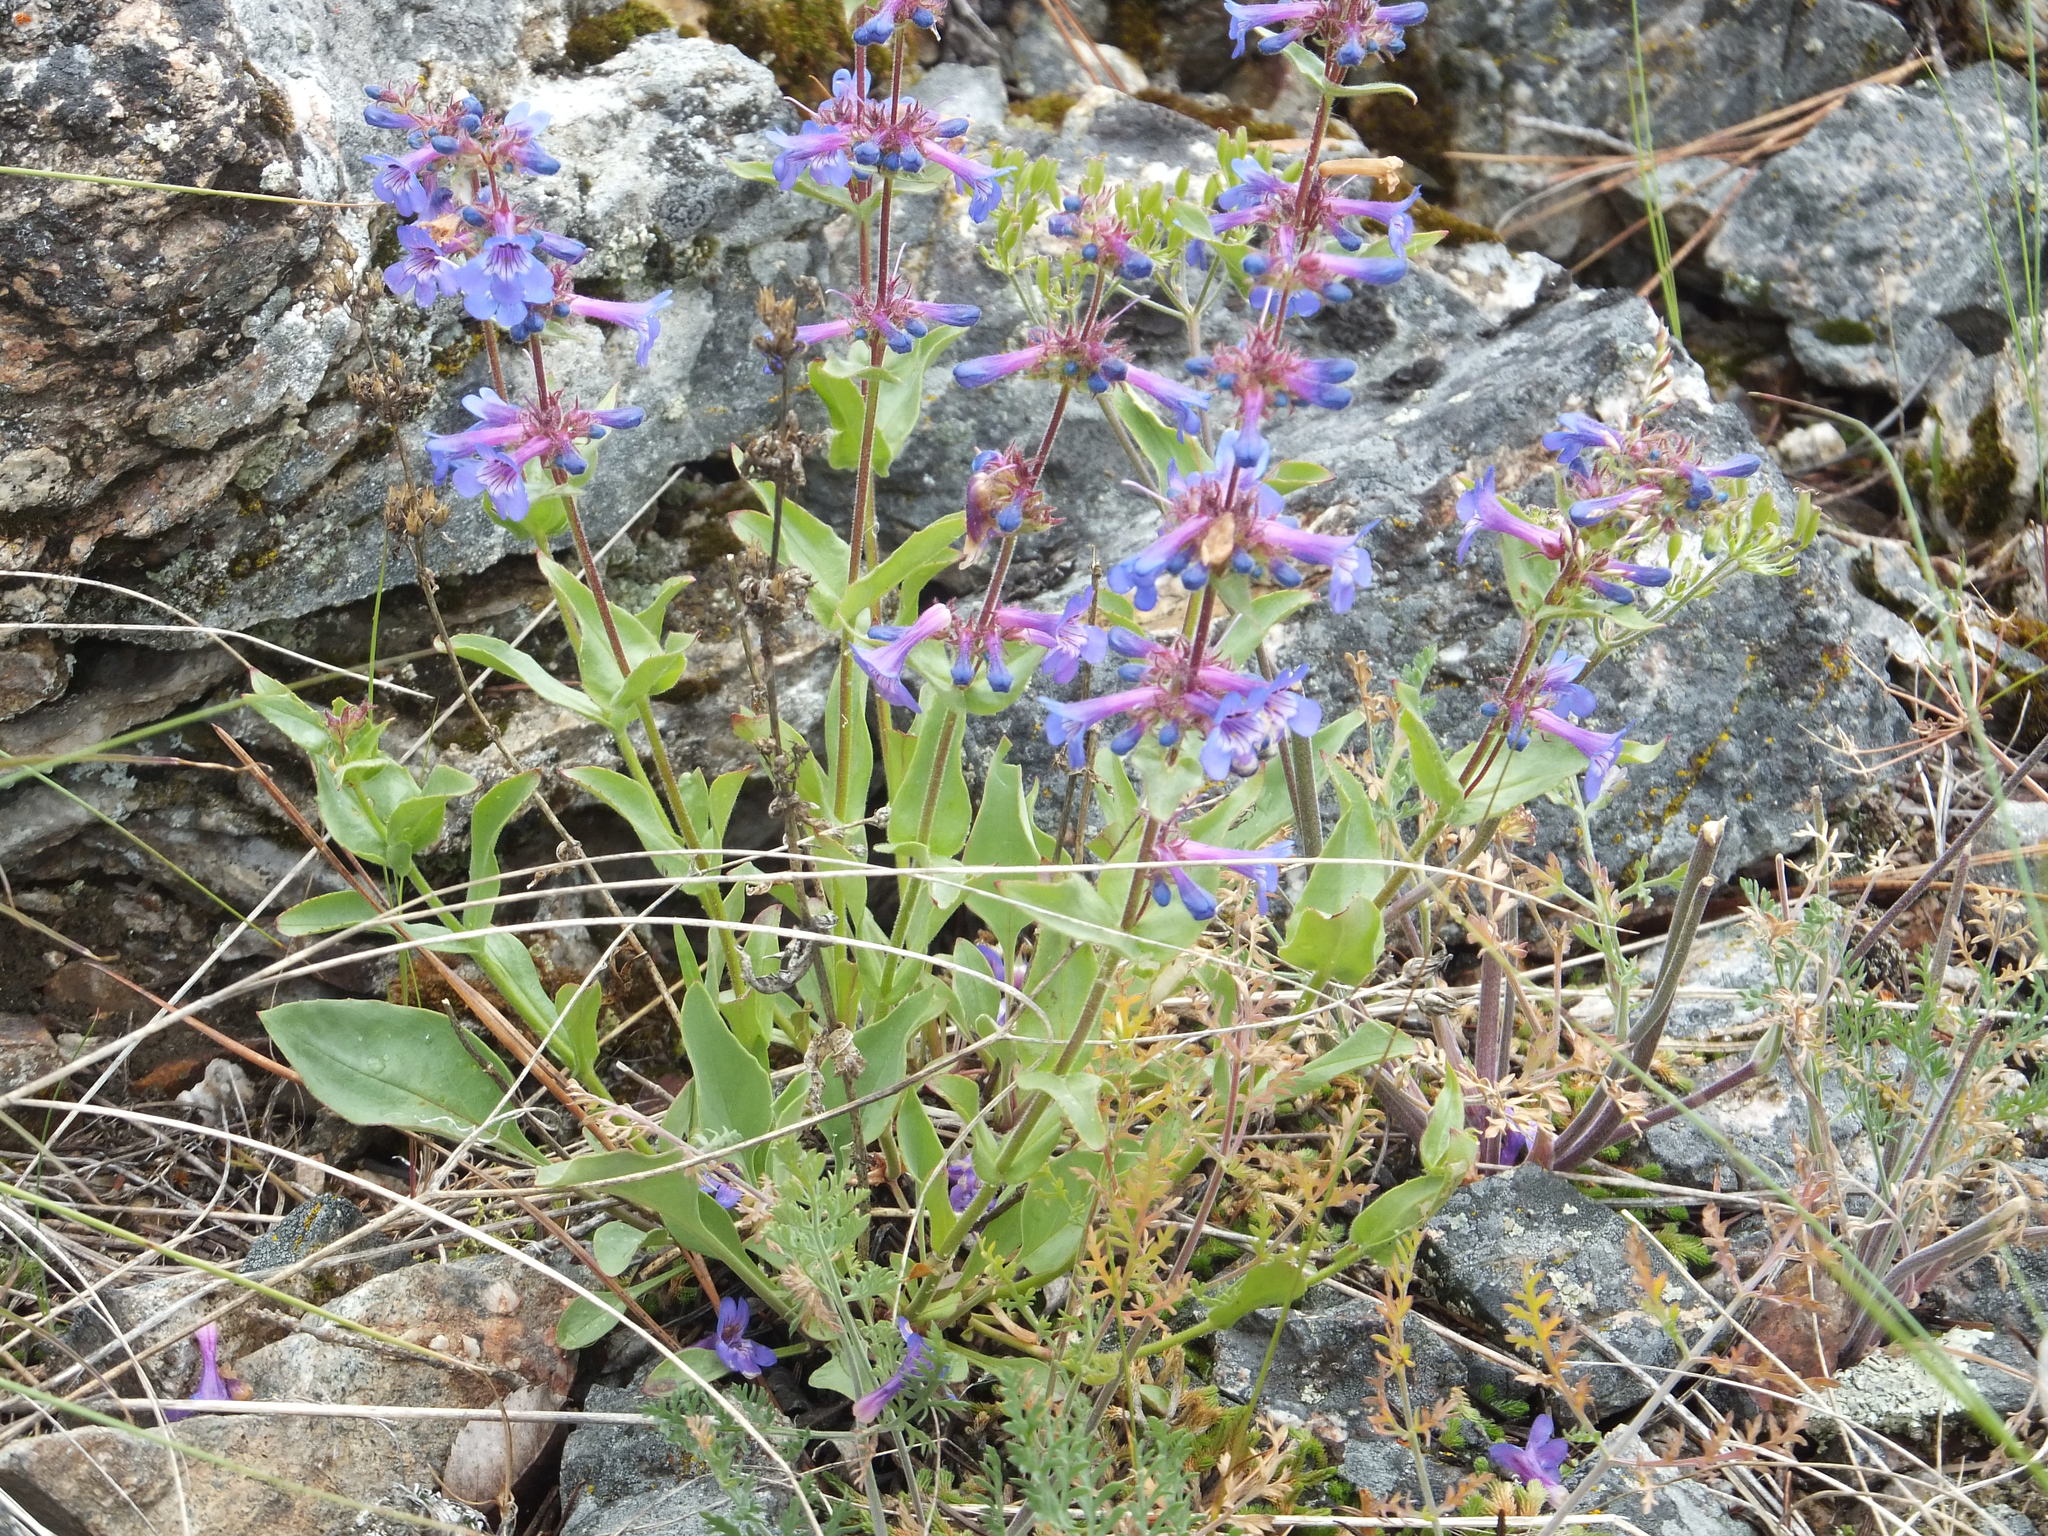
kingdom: Plantae
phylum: Tracheophyta
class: Magnoliopsida
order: Lamiales
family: Plantaginaceae
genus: Penstemon
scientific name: Penstemon pruinosus
